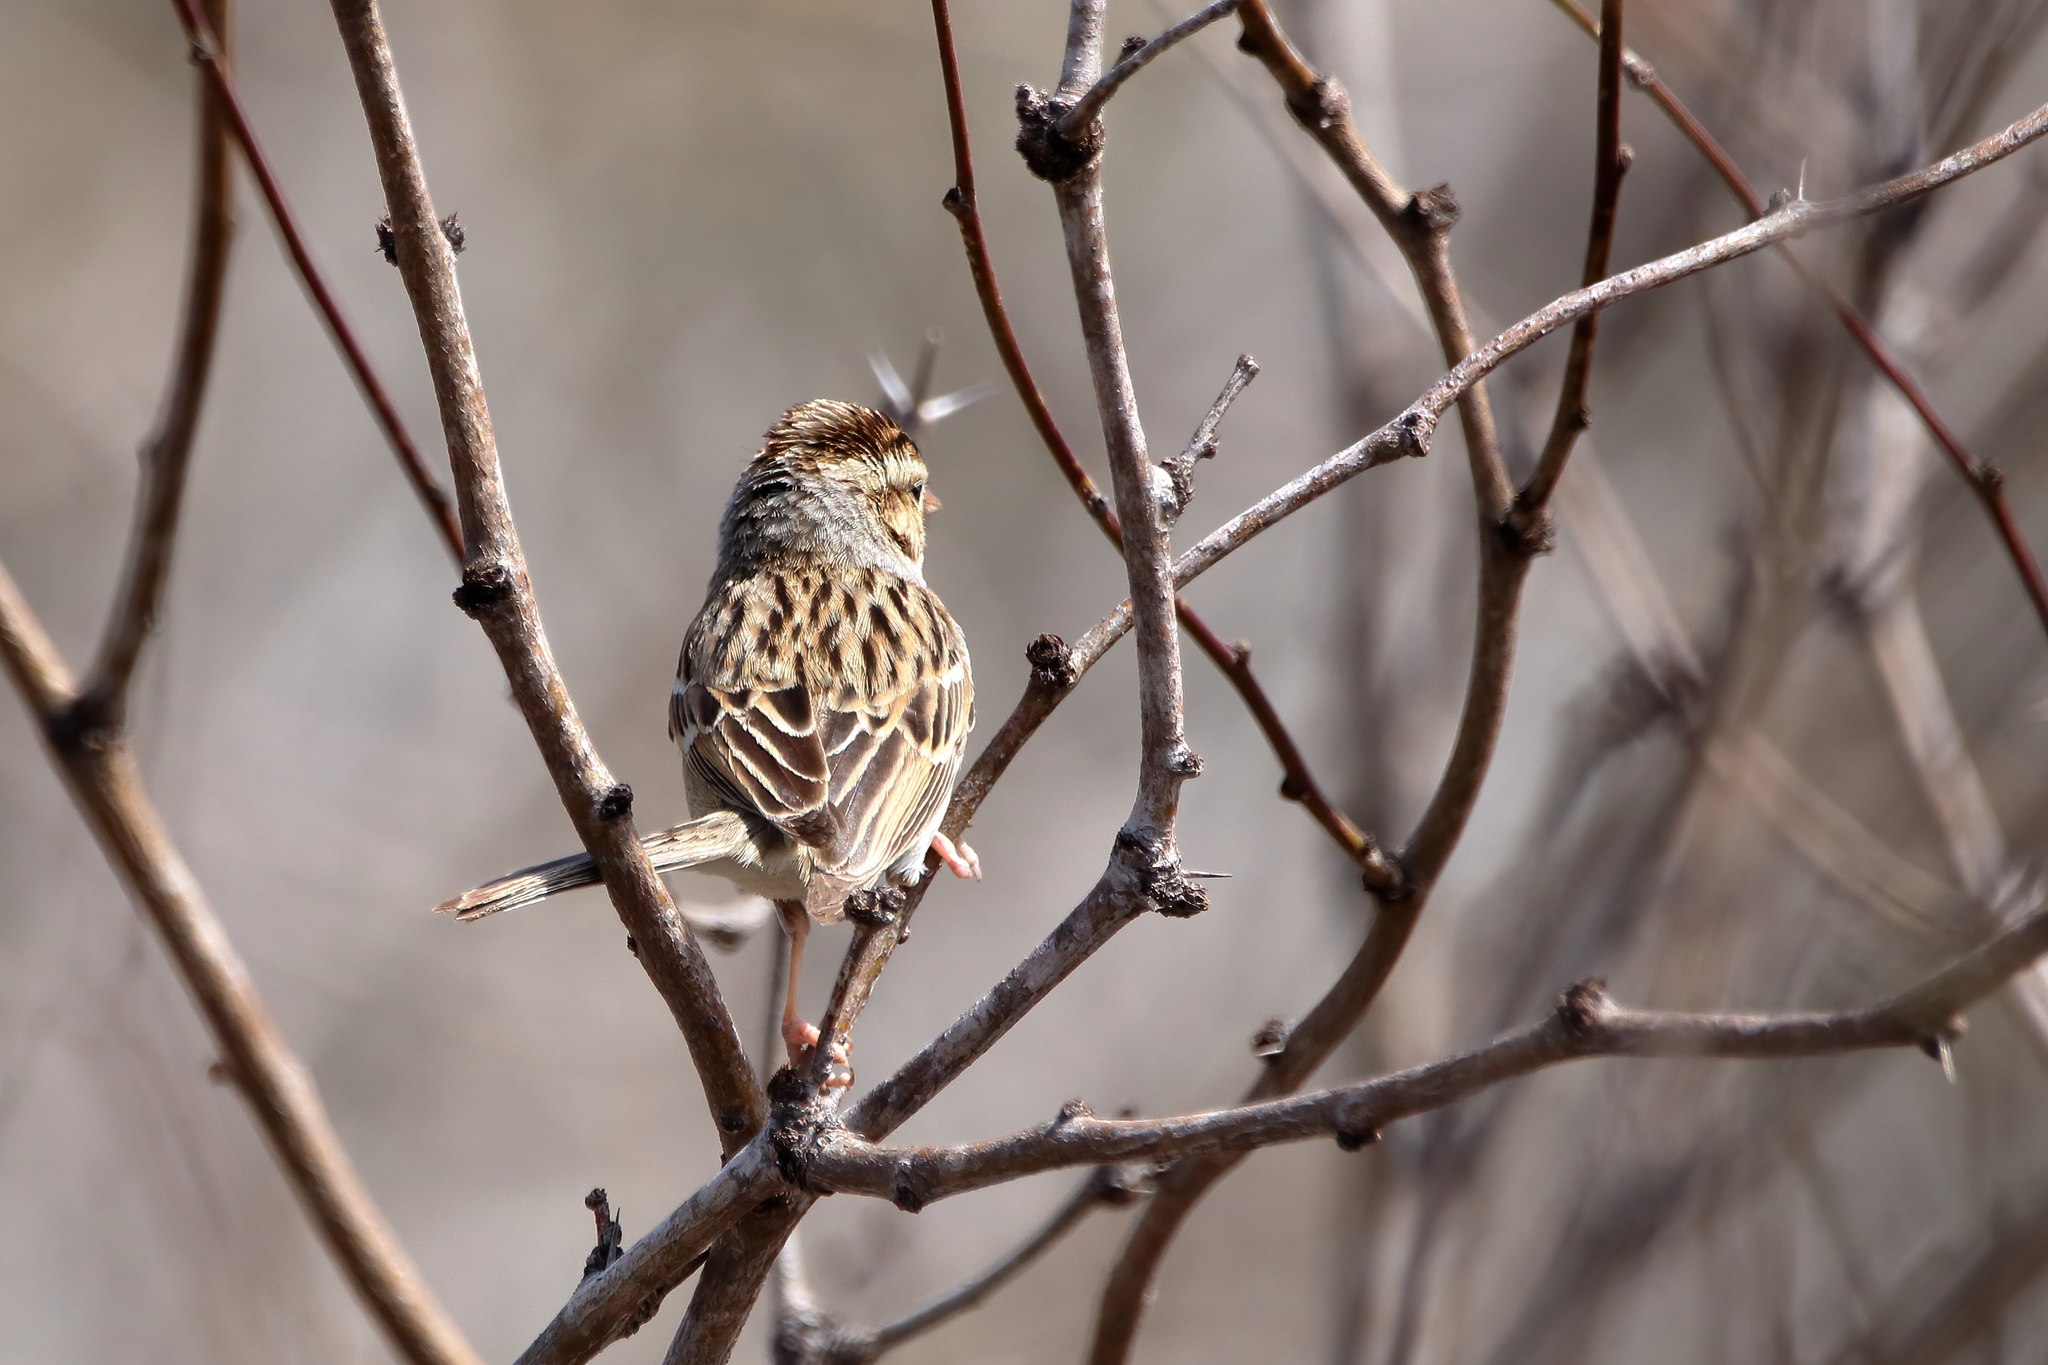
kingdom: Animalia
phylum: Chordata
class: Aves
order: Passeriformes
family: Passerellidae
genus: Spizella
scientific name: Spizella pallida
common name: Clay-colored sparrow
